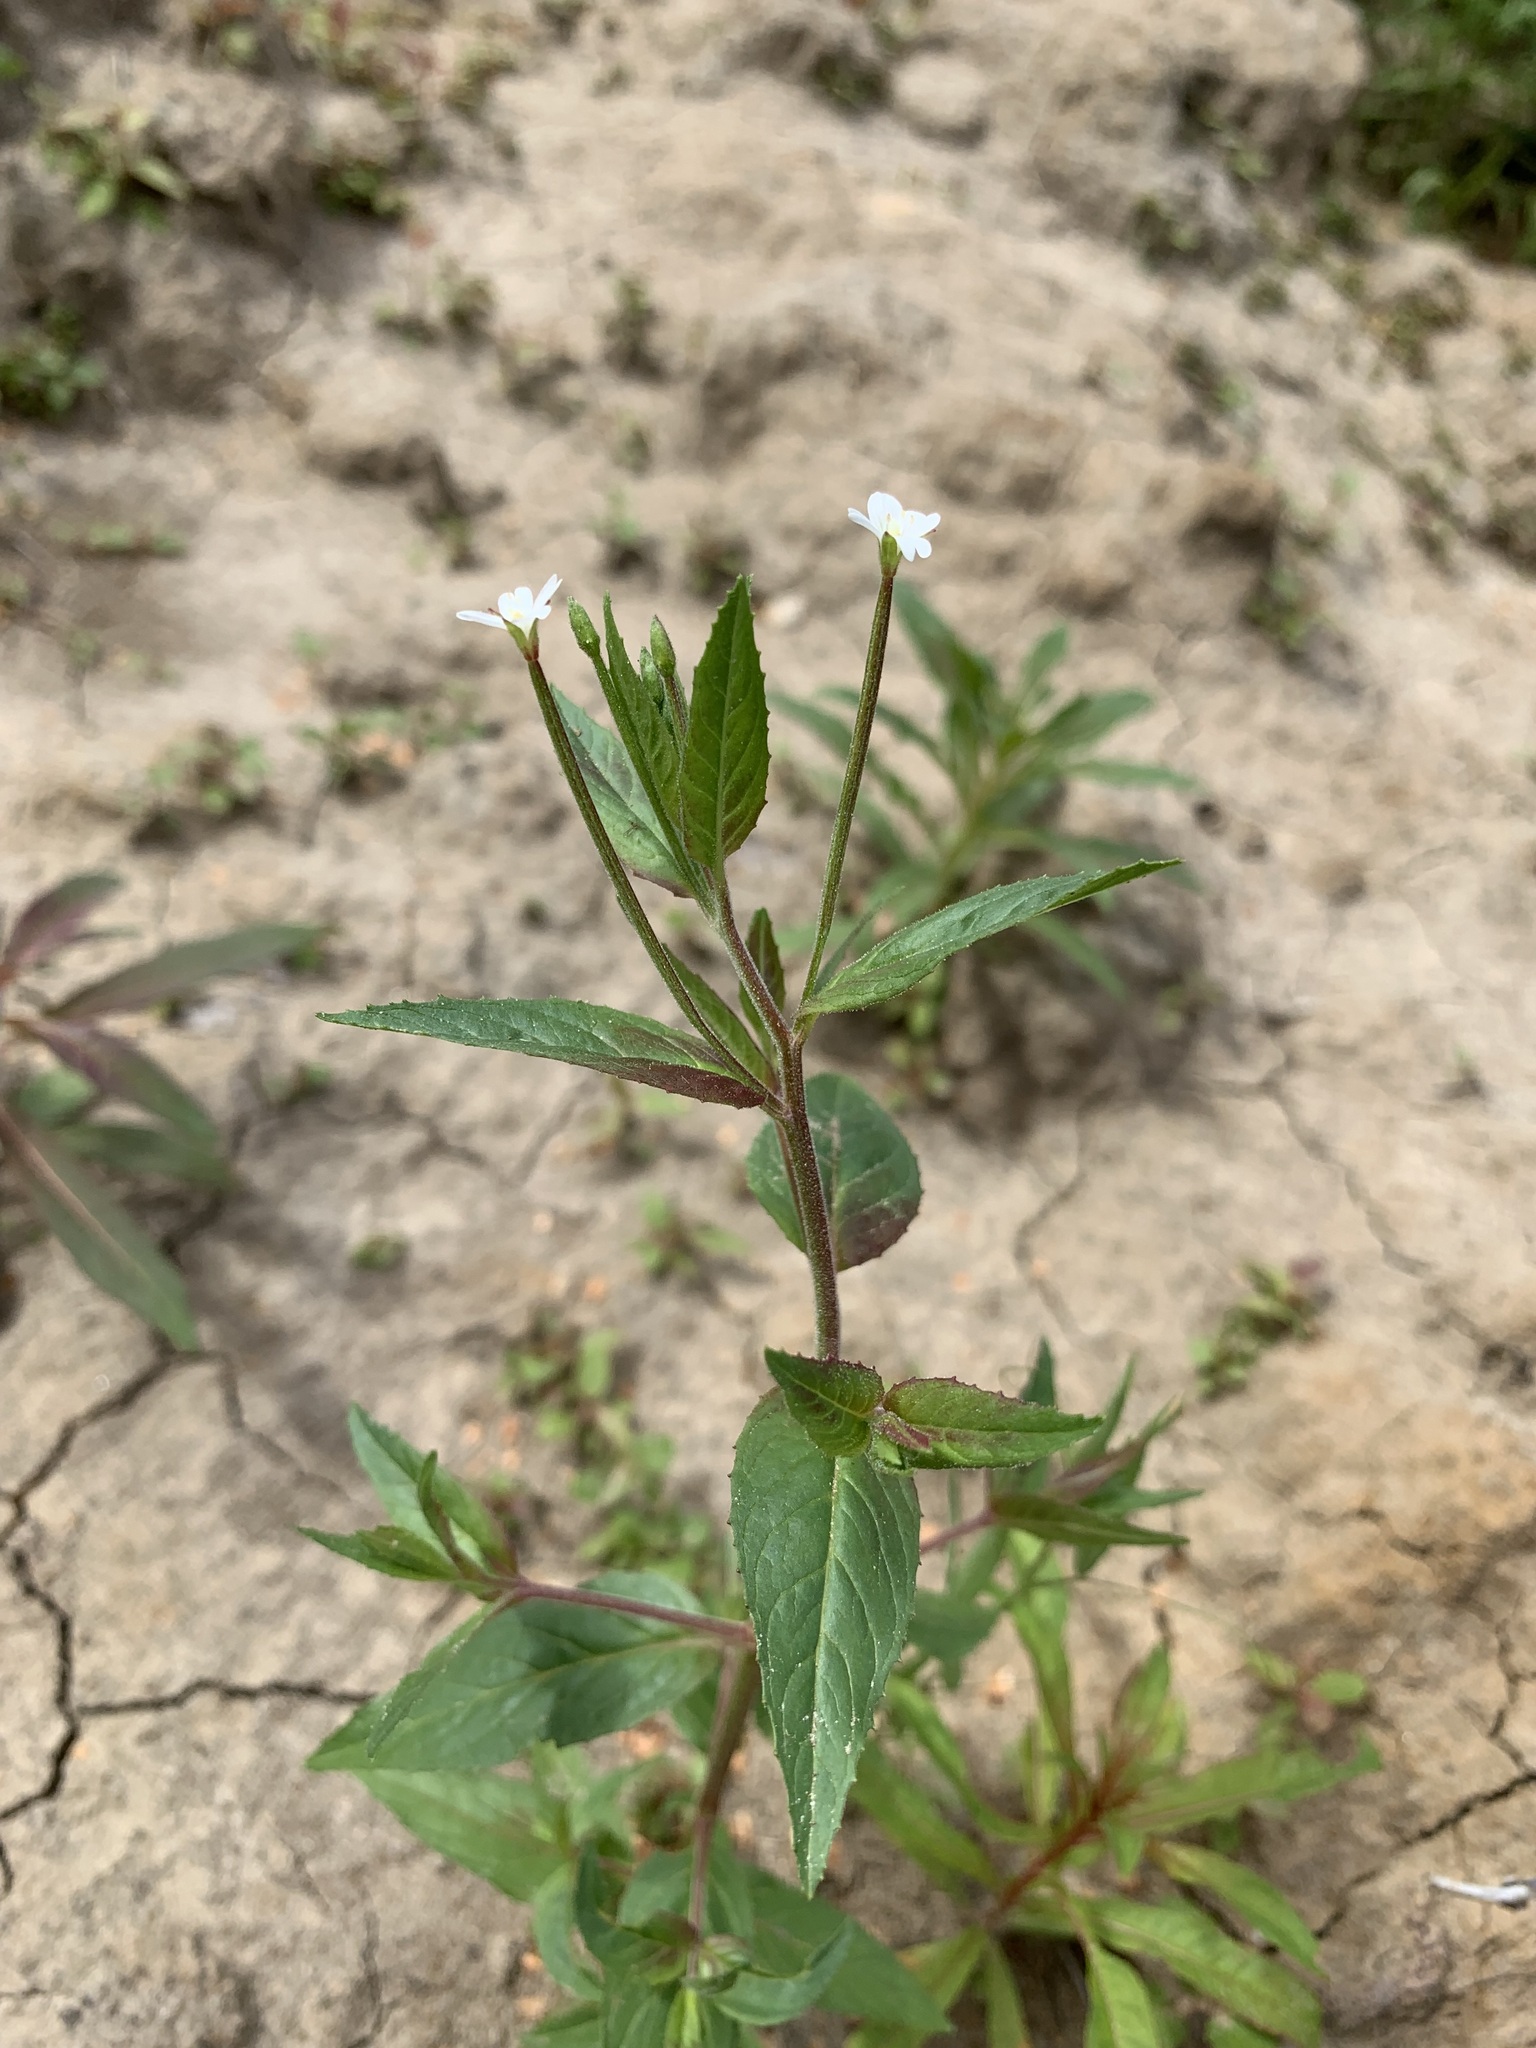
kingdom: Plantae
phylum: Tracheophyta
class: Magnoliopsida
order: Myrtales
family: Onagraceae
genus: Epilobium
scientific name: Epilobium pseudorubescens
